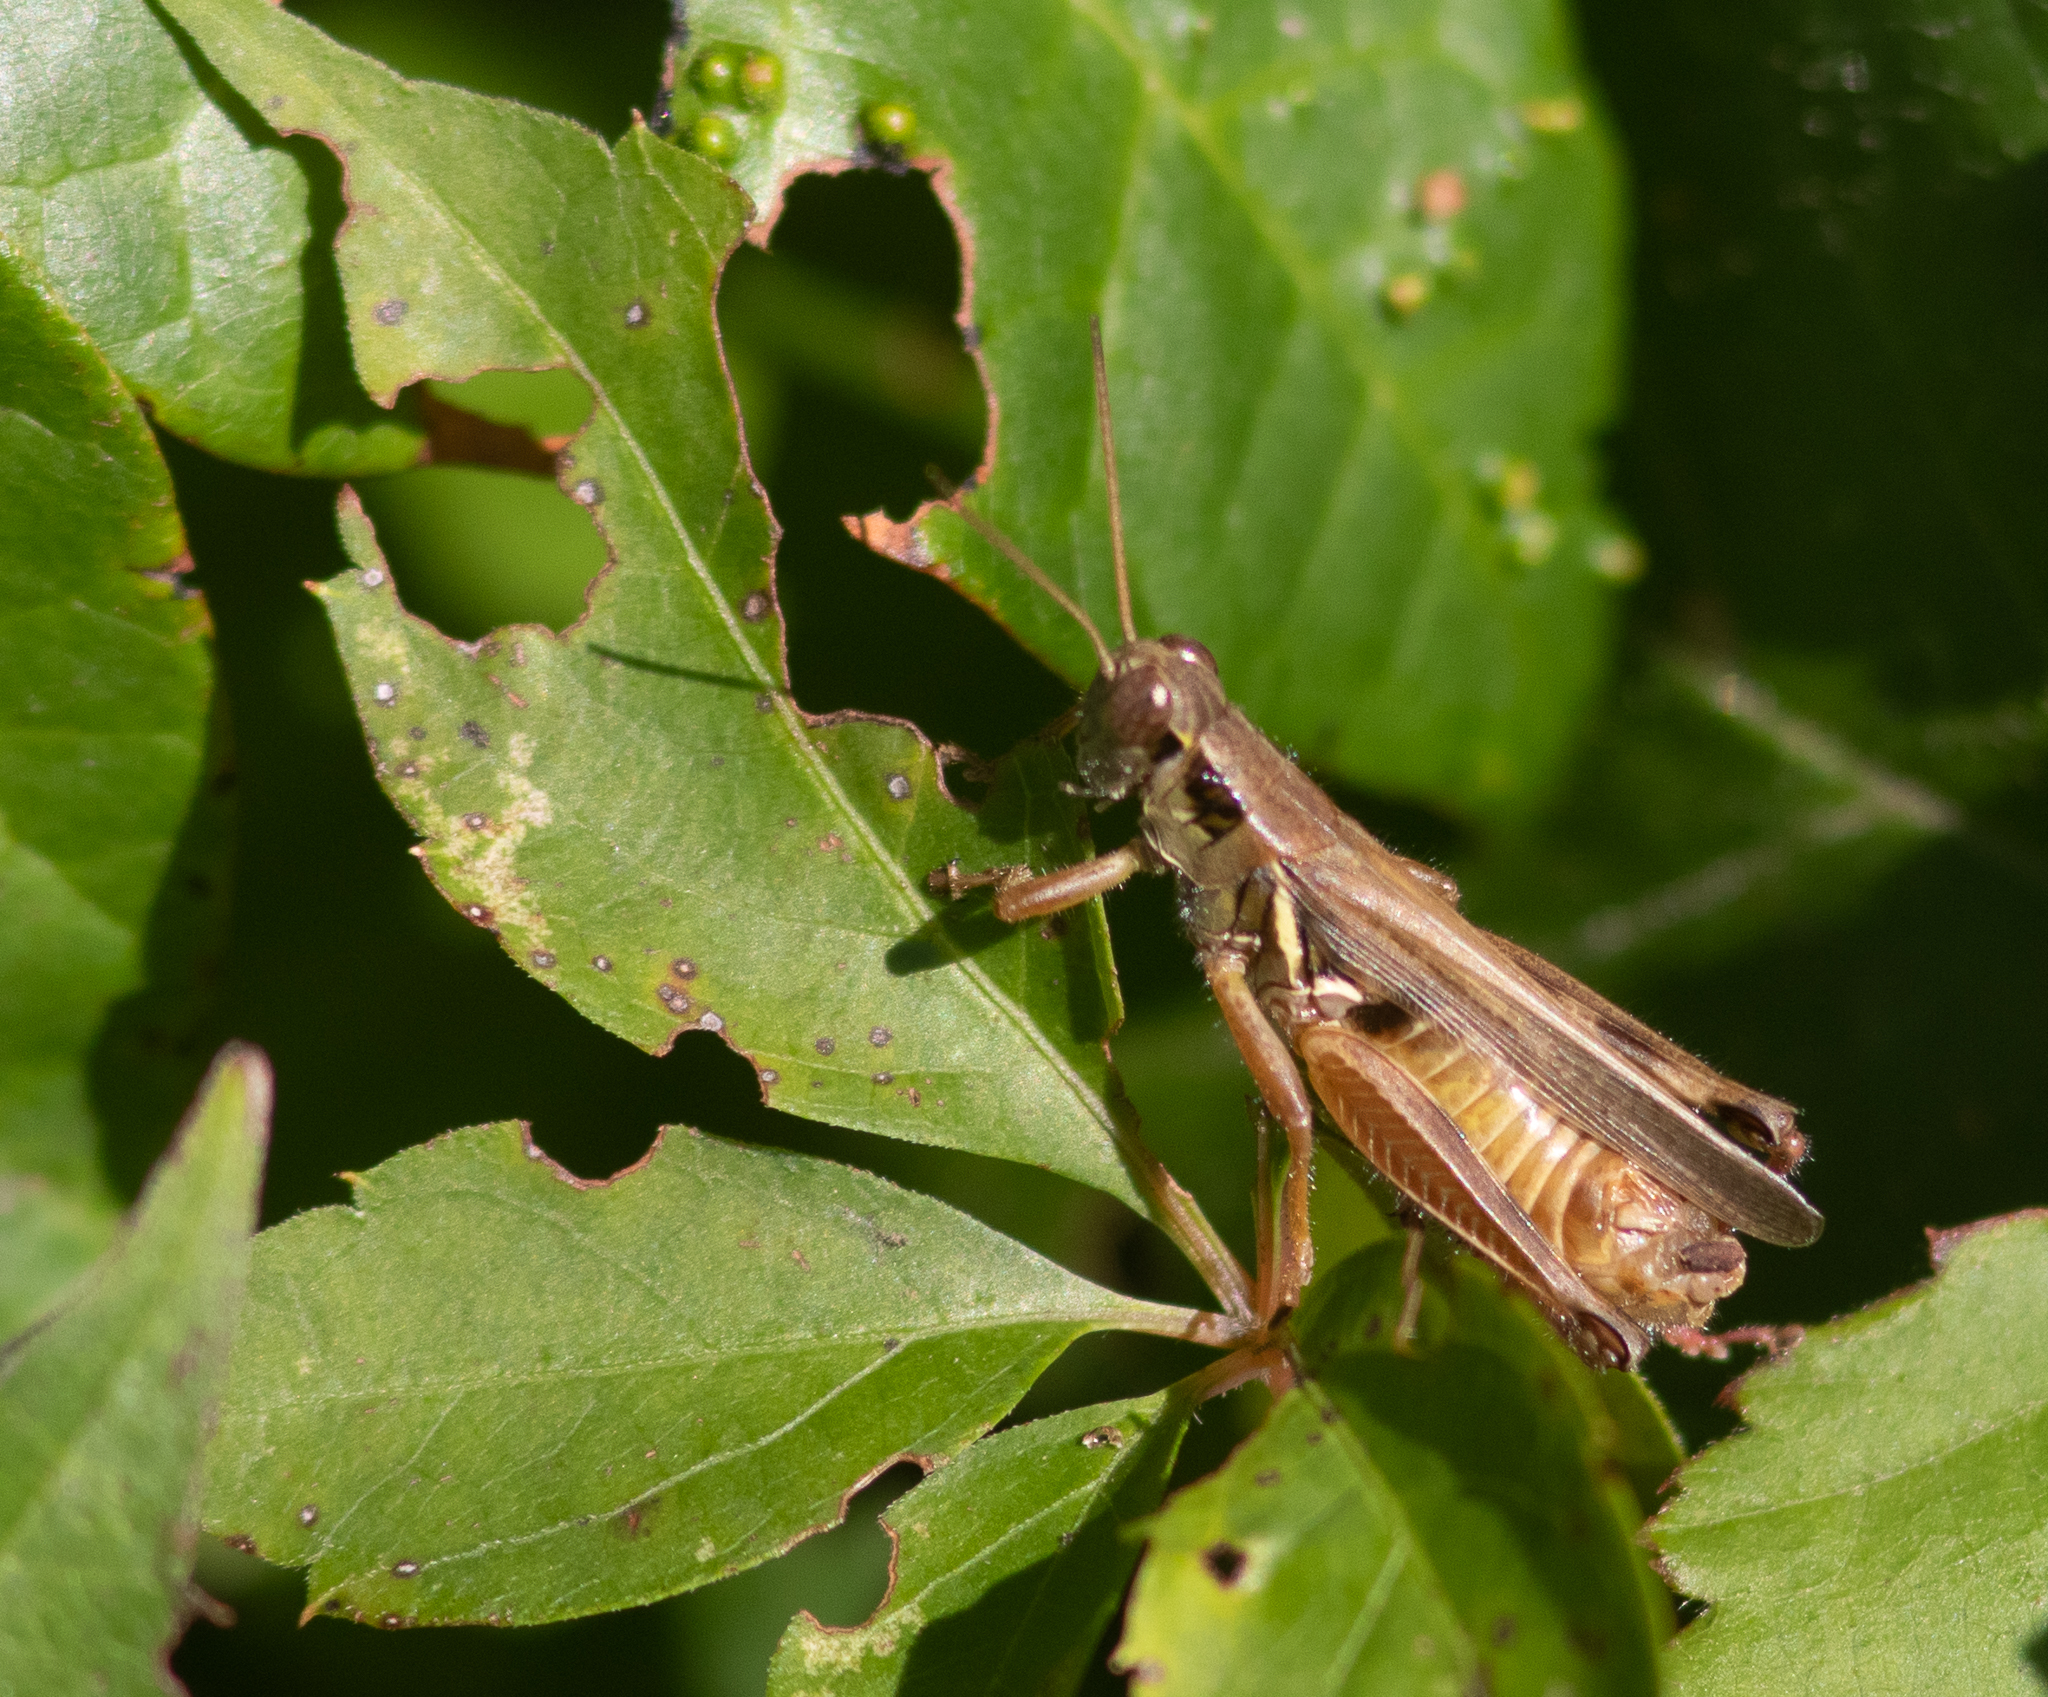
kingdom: Animalia
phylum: Arthropoda
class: Insecta
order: Orthoptera
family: Acrididae
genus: Melanoplus
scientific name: Melanoplus femurrubrum
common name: Red-legged grasshopper
